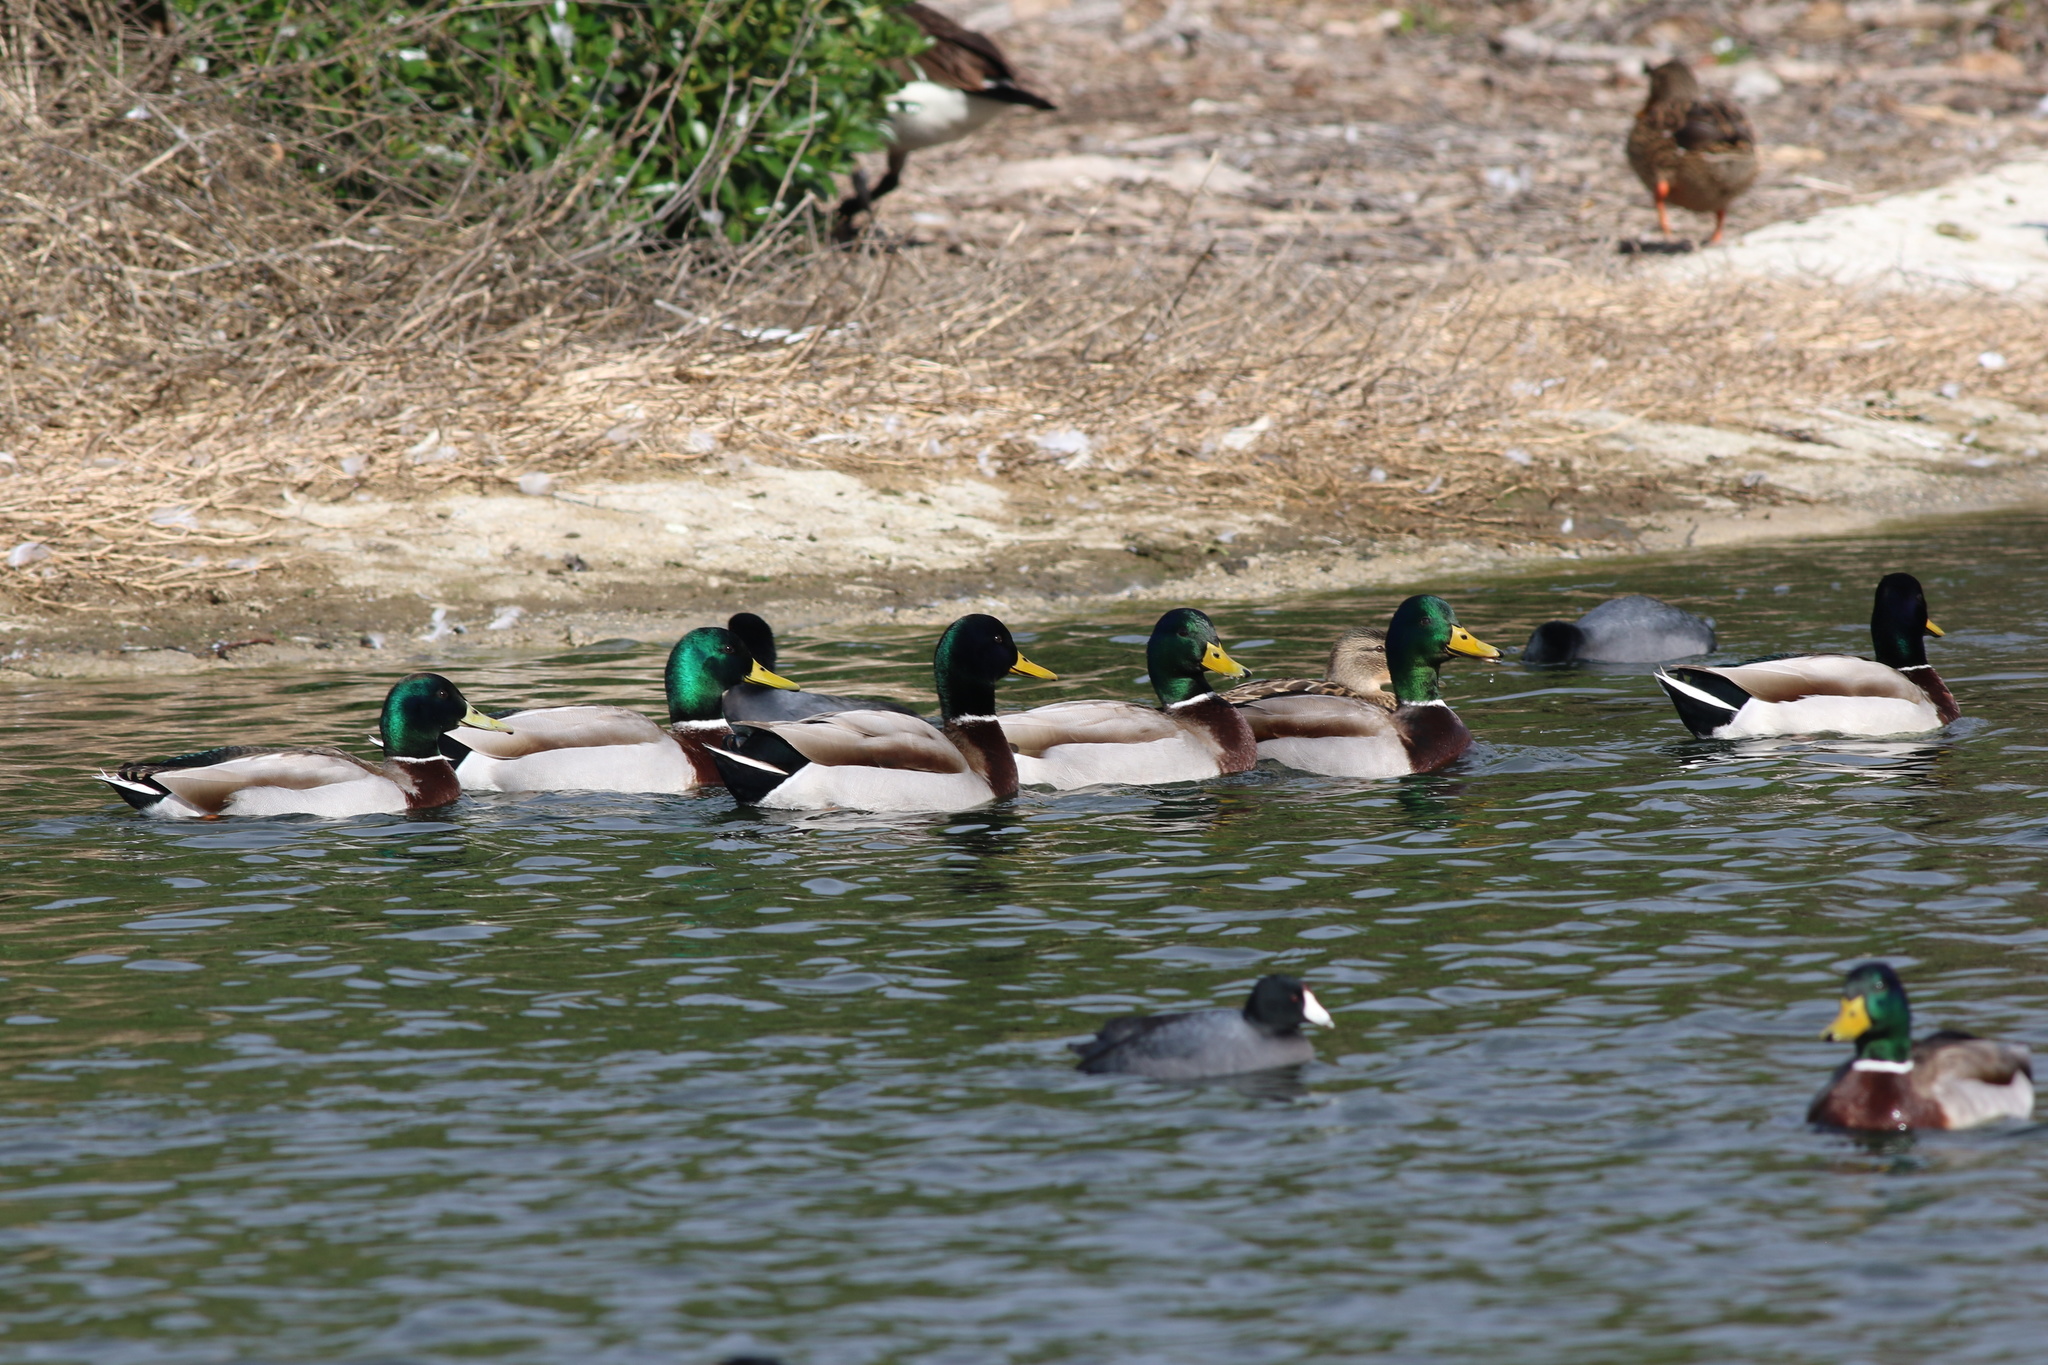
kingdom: Animalia
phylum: Chordata
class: Aves
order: Anseriformes
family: Anatidae
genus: Anas
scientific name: Anas platyrhynchos
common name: Mallard
